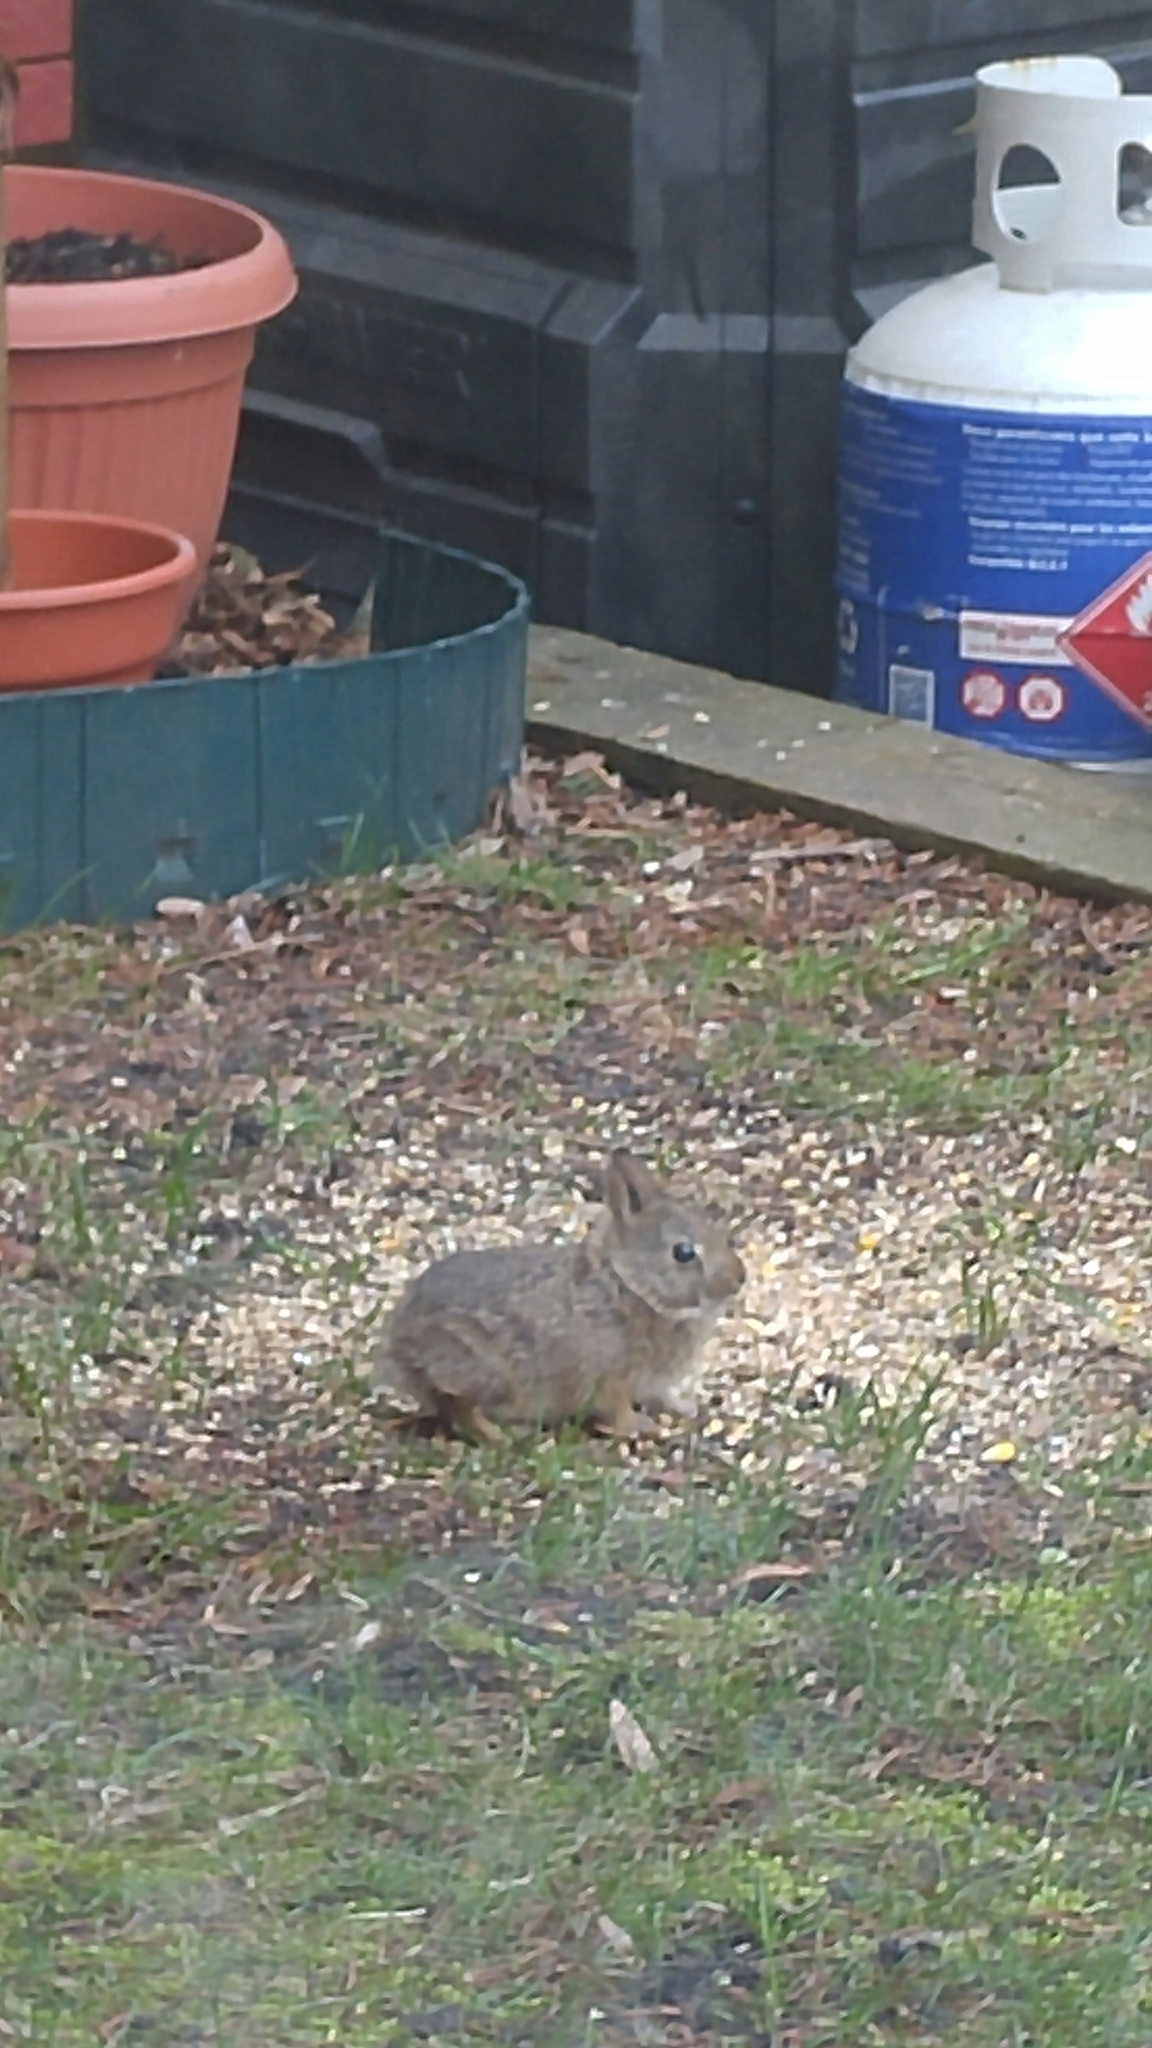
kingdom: Animalia
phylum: Chordata
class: Mammalia
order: Lagomorpha
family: Leporidae
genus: Sylvilagus
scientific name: Sylvilagus floridanus
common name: Eastern cottontail
